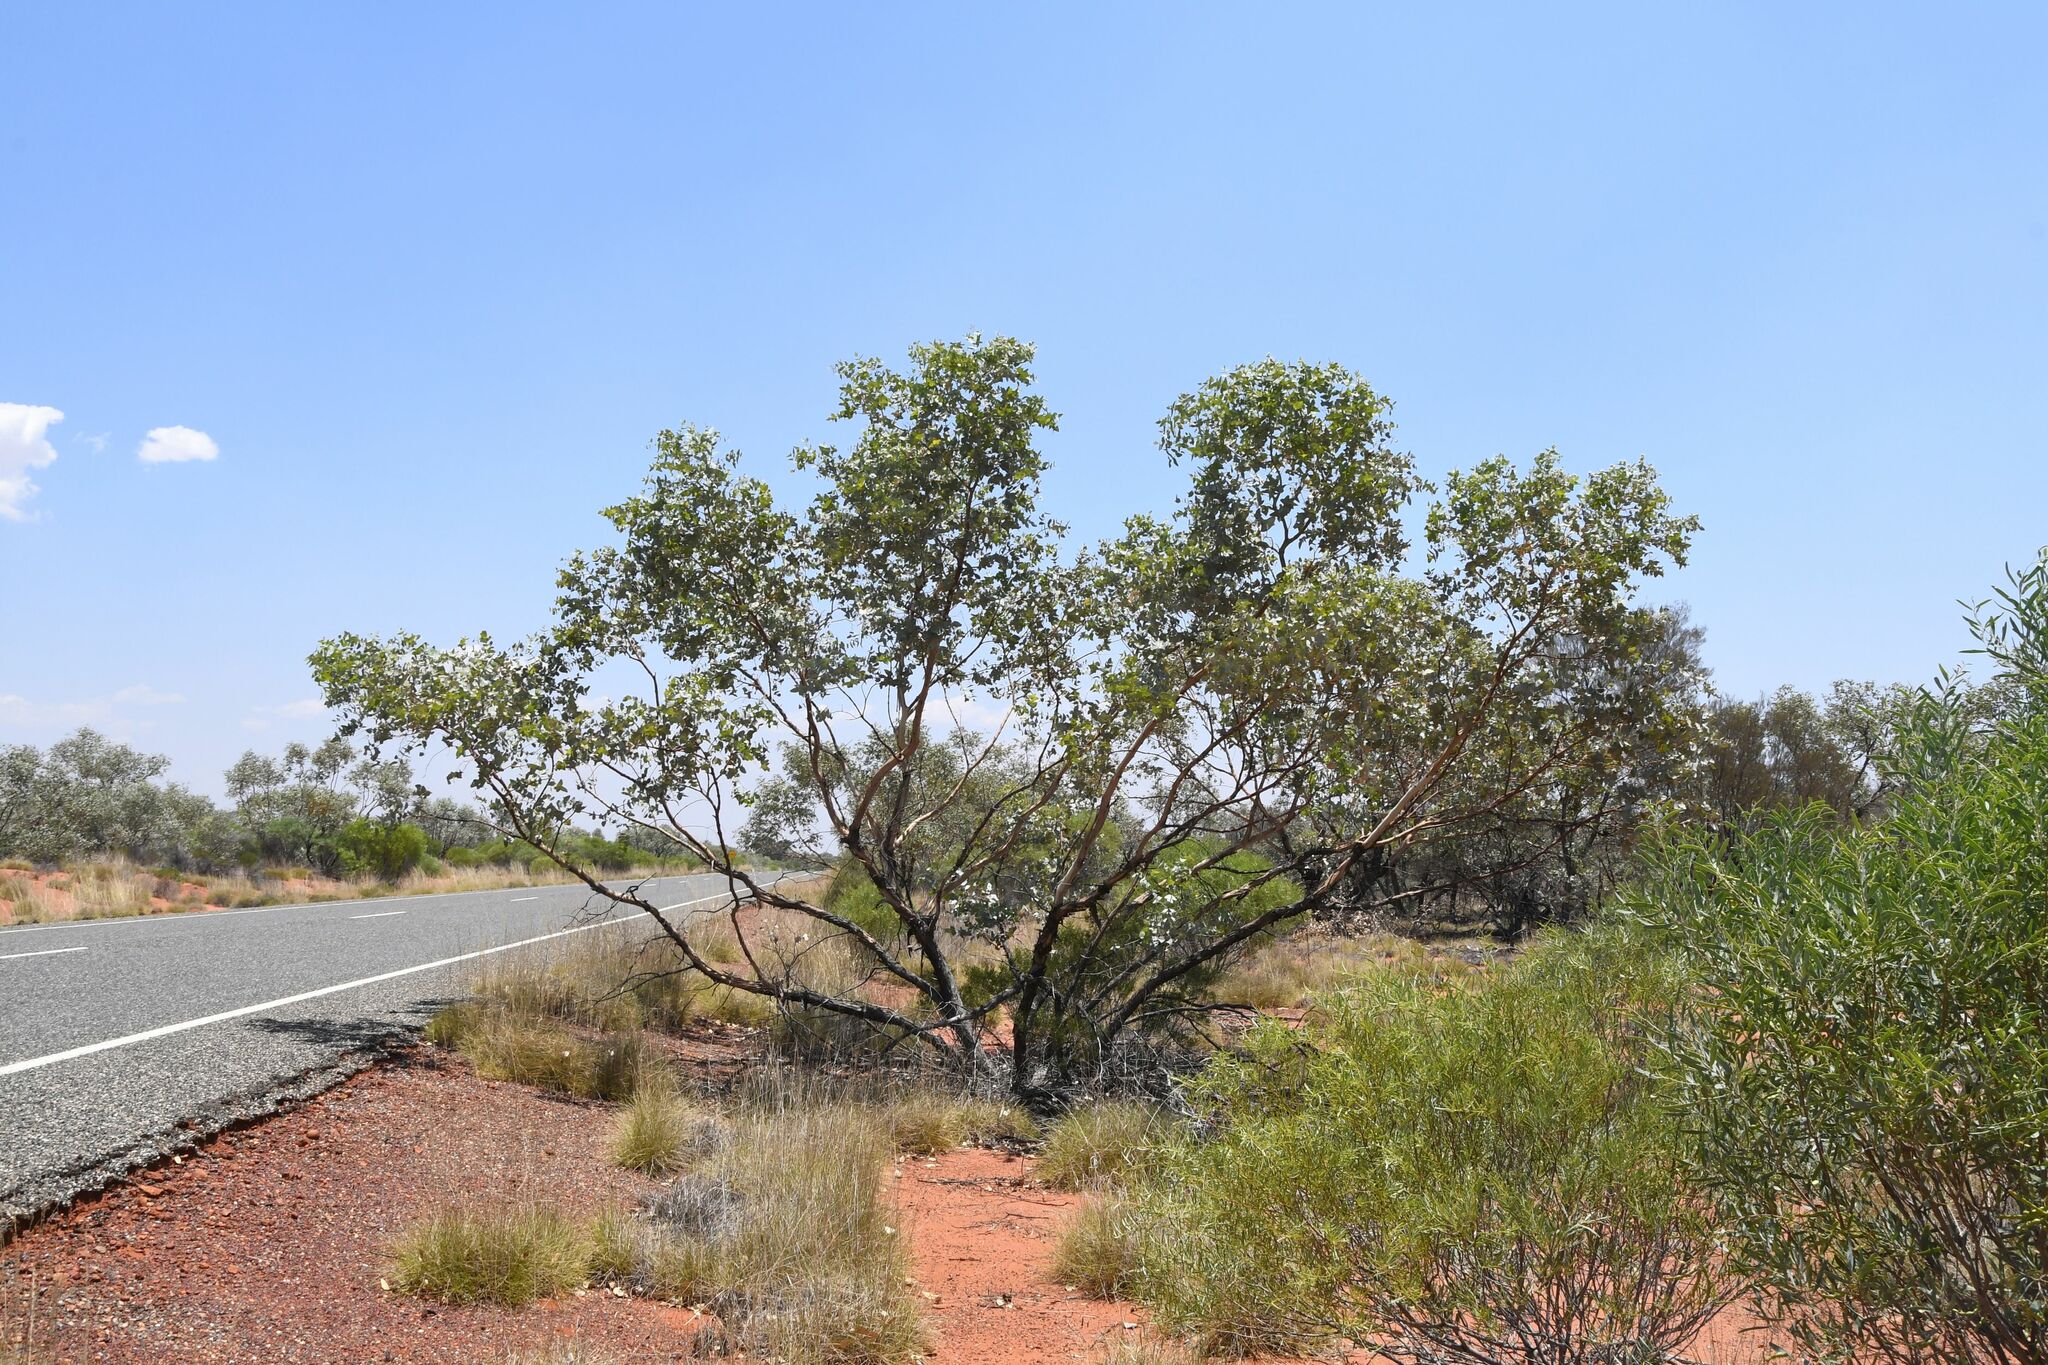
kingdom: Plantae
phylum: Tracheophyta
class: Magnoliopsida
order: Myrtales
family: Myrtaceae
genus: Eucalyptus
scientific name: Eucalyptus gamophylla
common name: Blue mallee
